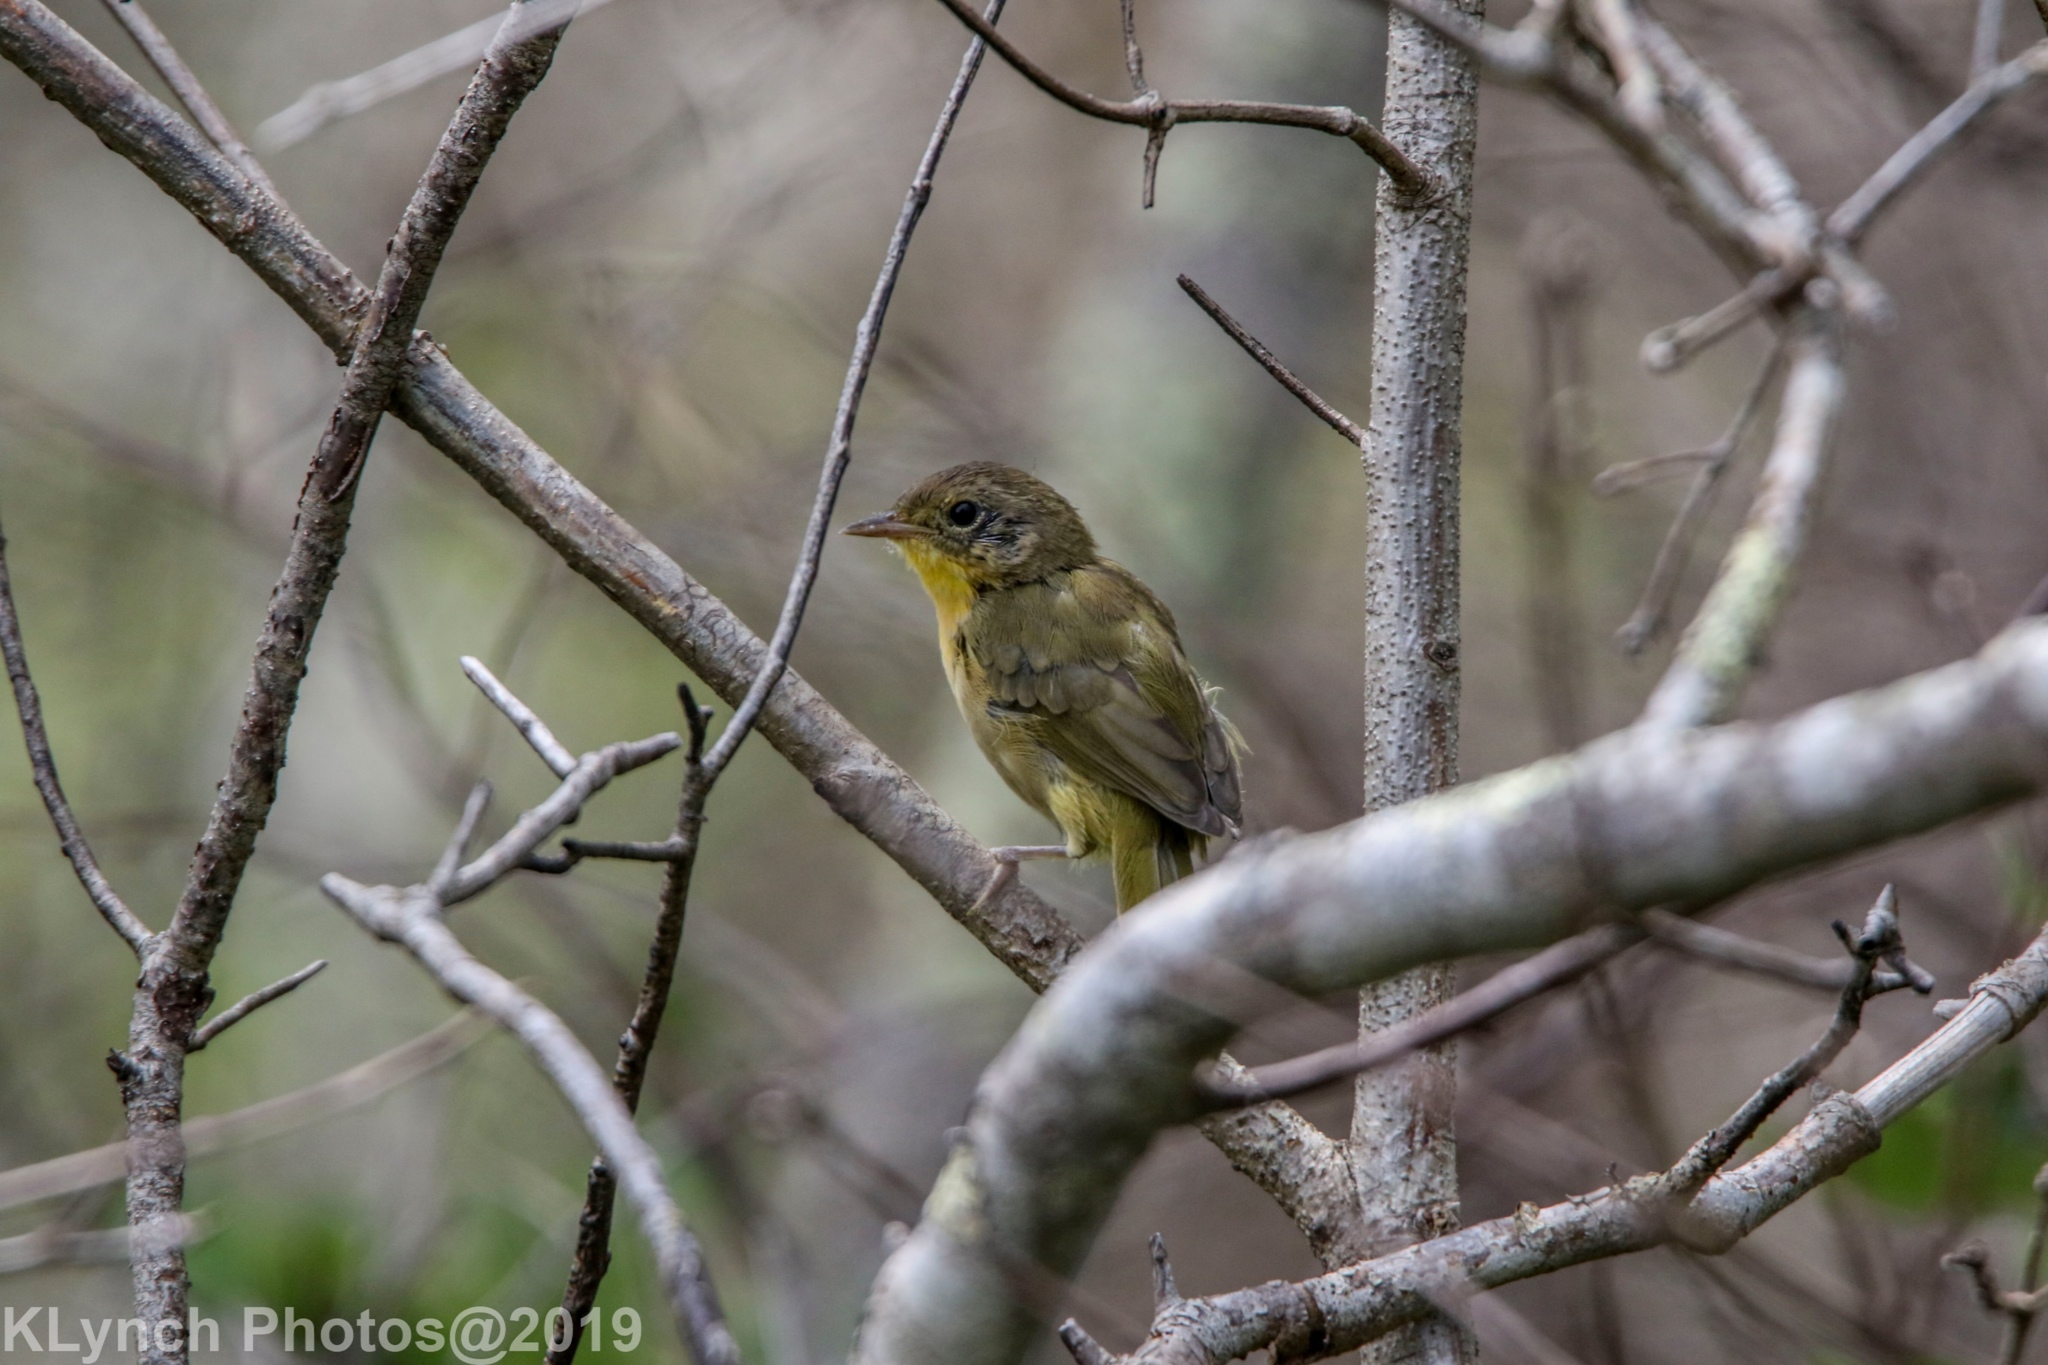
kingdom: Animalia
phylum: Chordata
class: Aves
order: Passeriformes
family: Parulidae
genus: Geothlypis
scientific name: Geothlypis trichas
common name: Common yellowthroat
